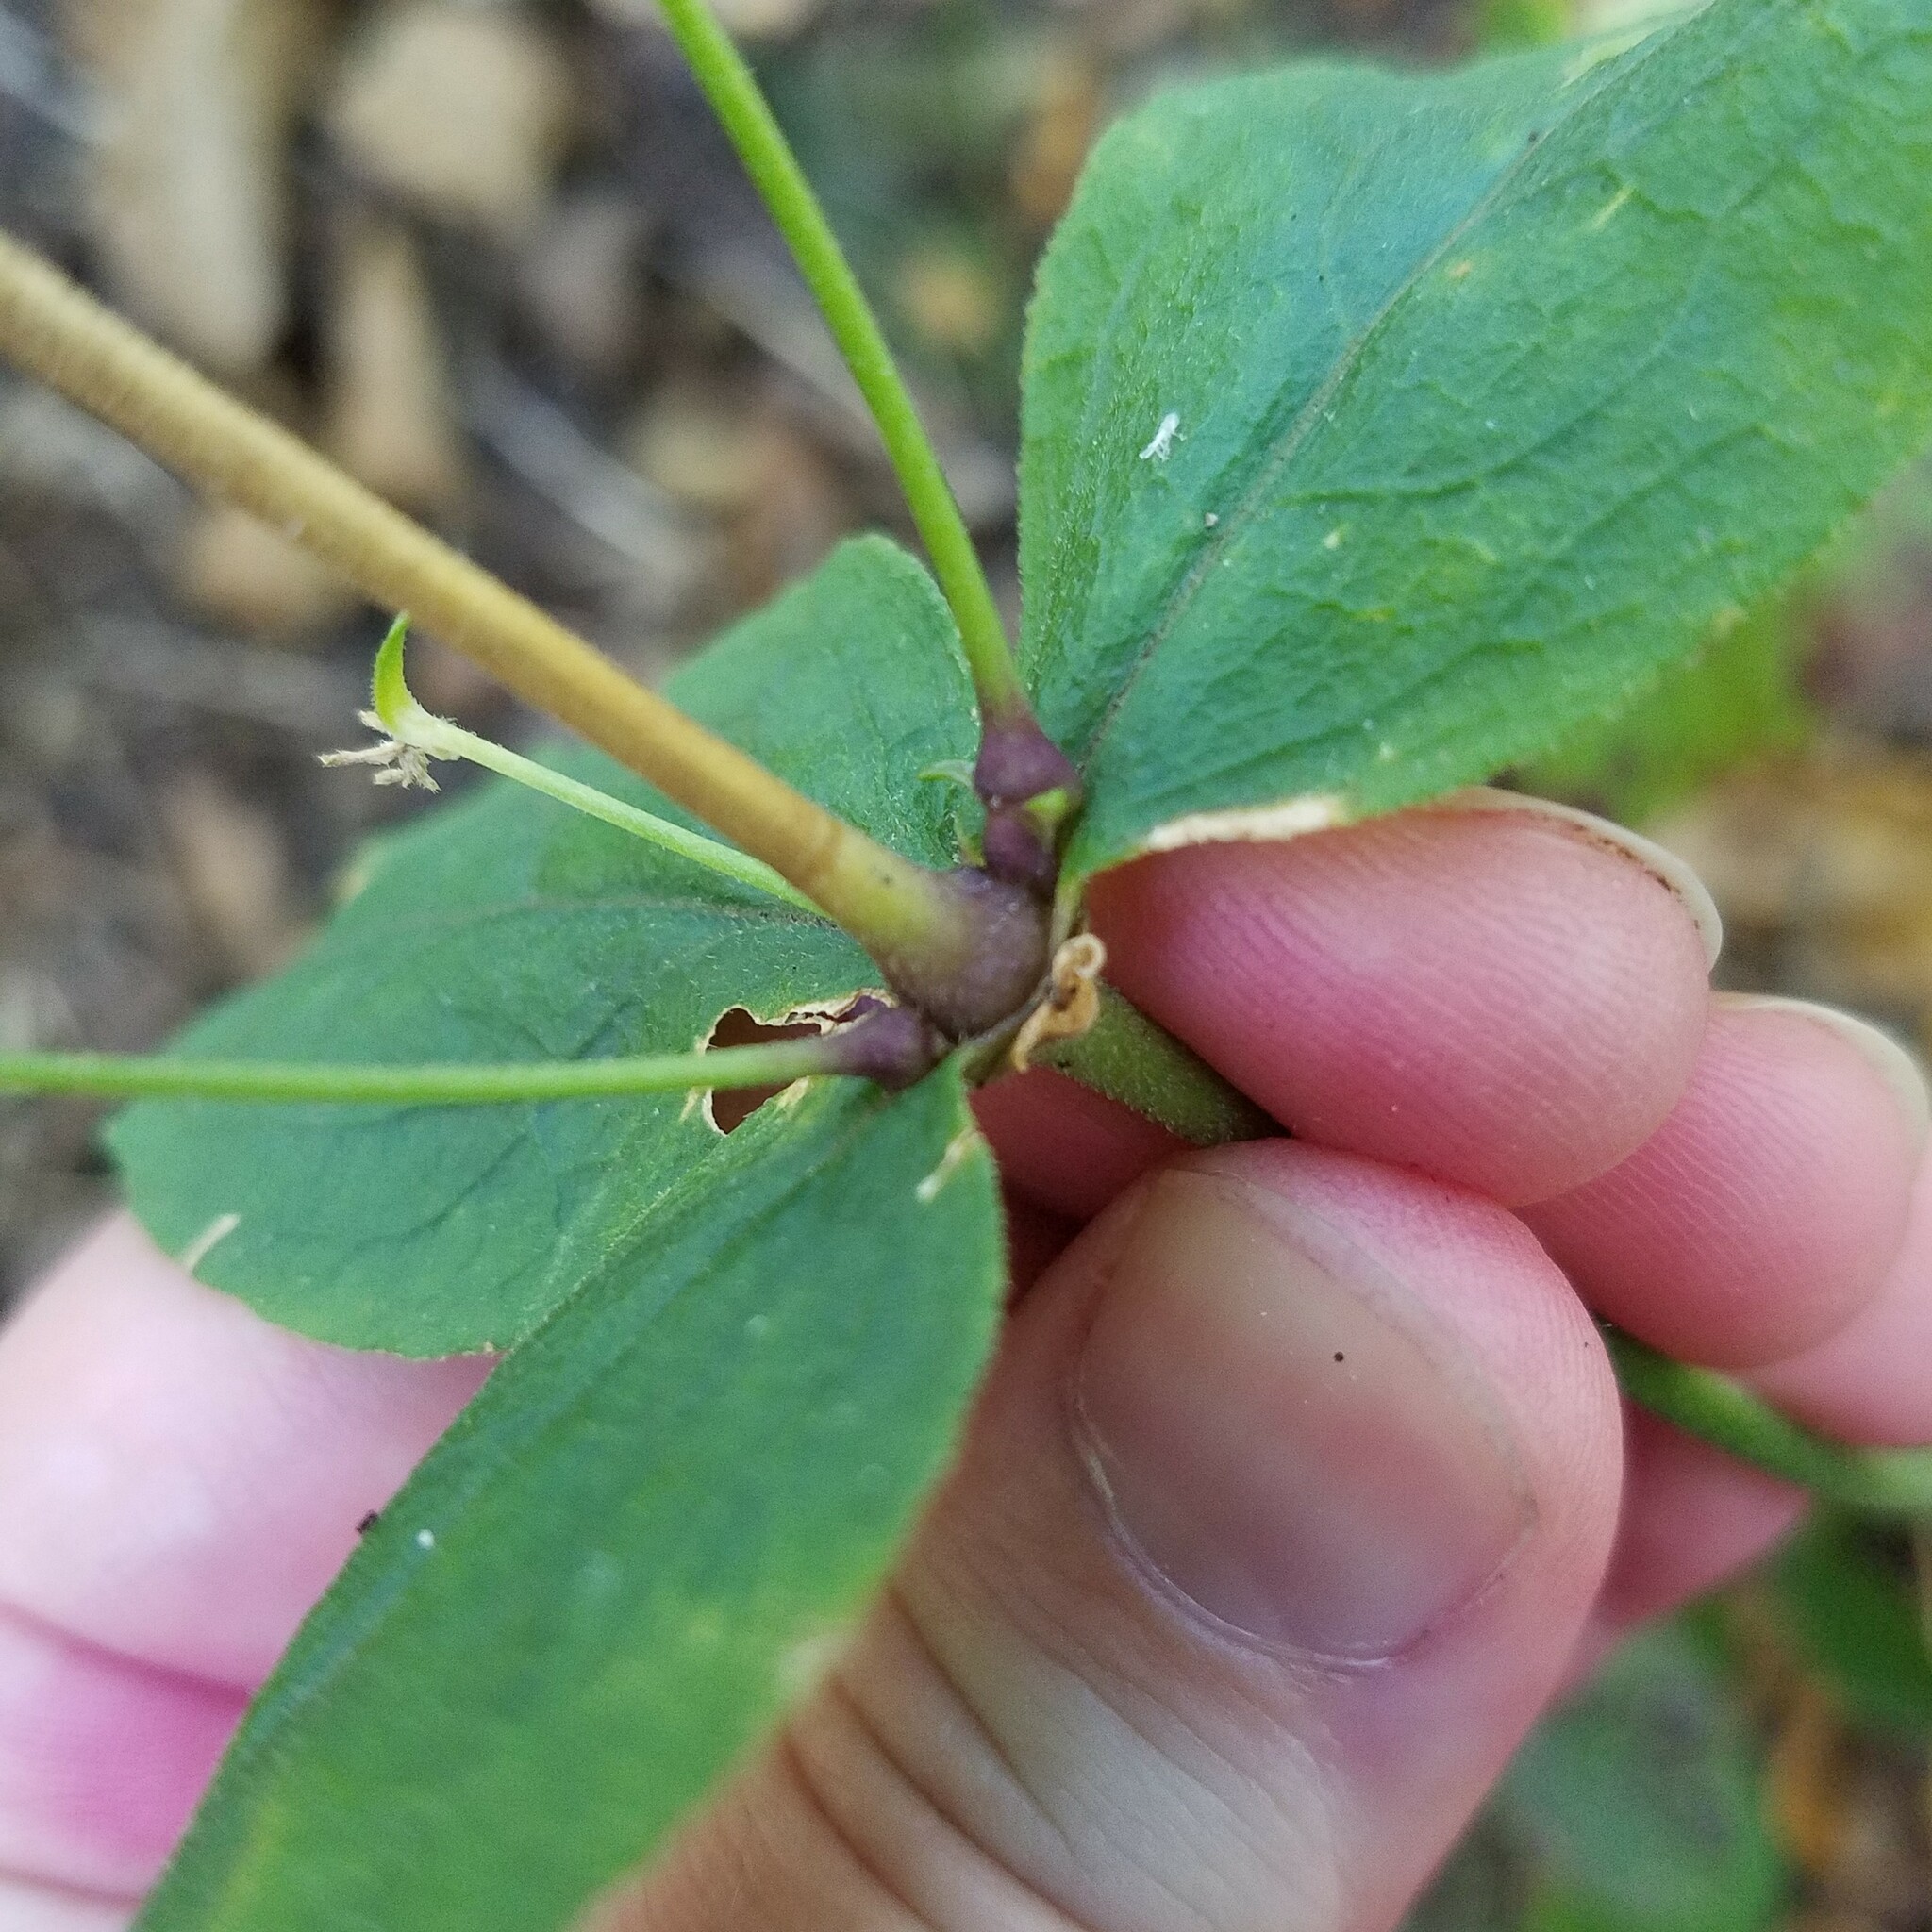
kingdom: Plantae
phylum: Tracheophyta
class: Magnoliopsida
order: Caryophyllales
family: Caryophyllaceae
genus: Silene
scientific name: Silene stellata
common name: Starry campion
